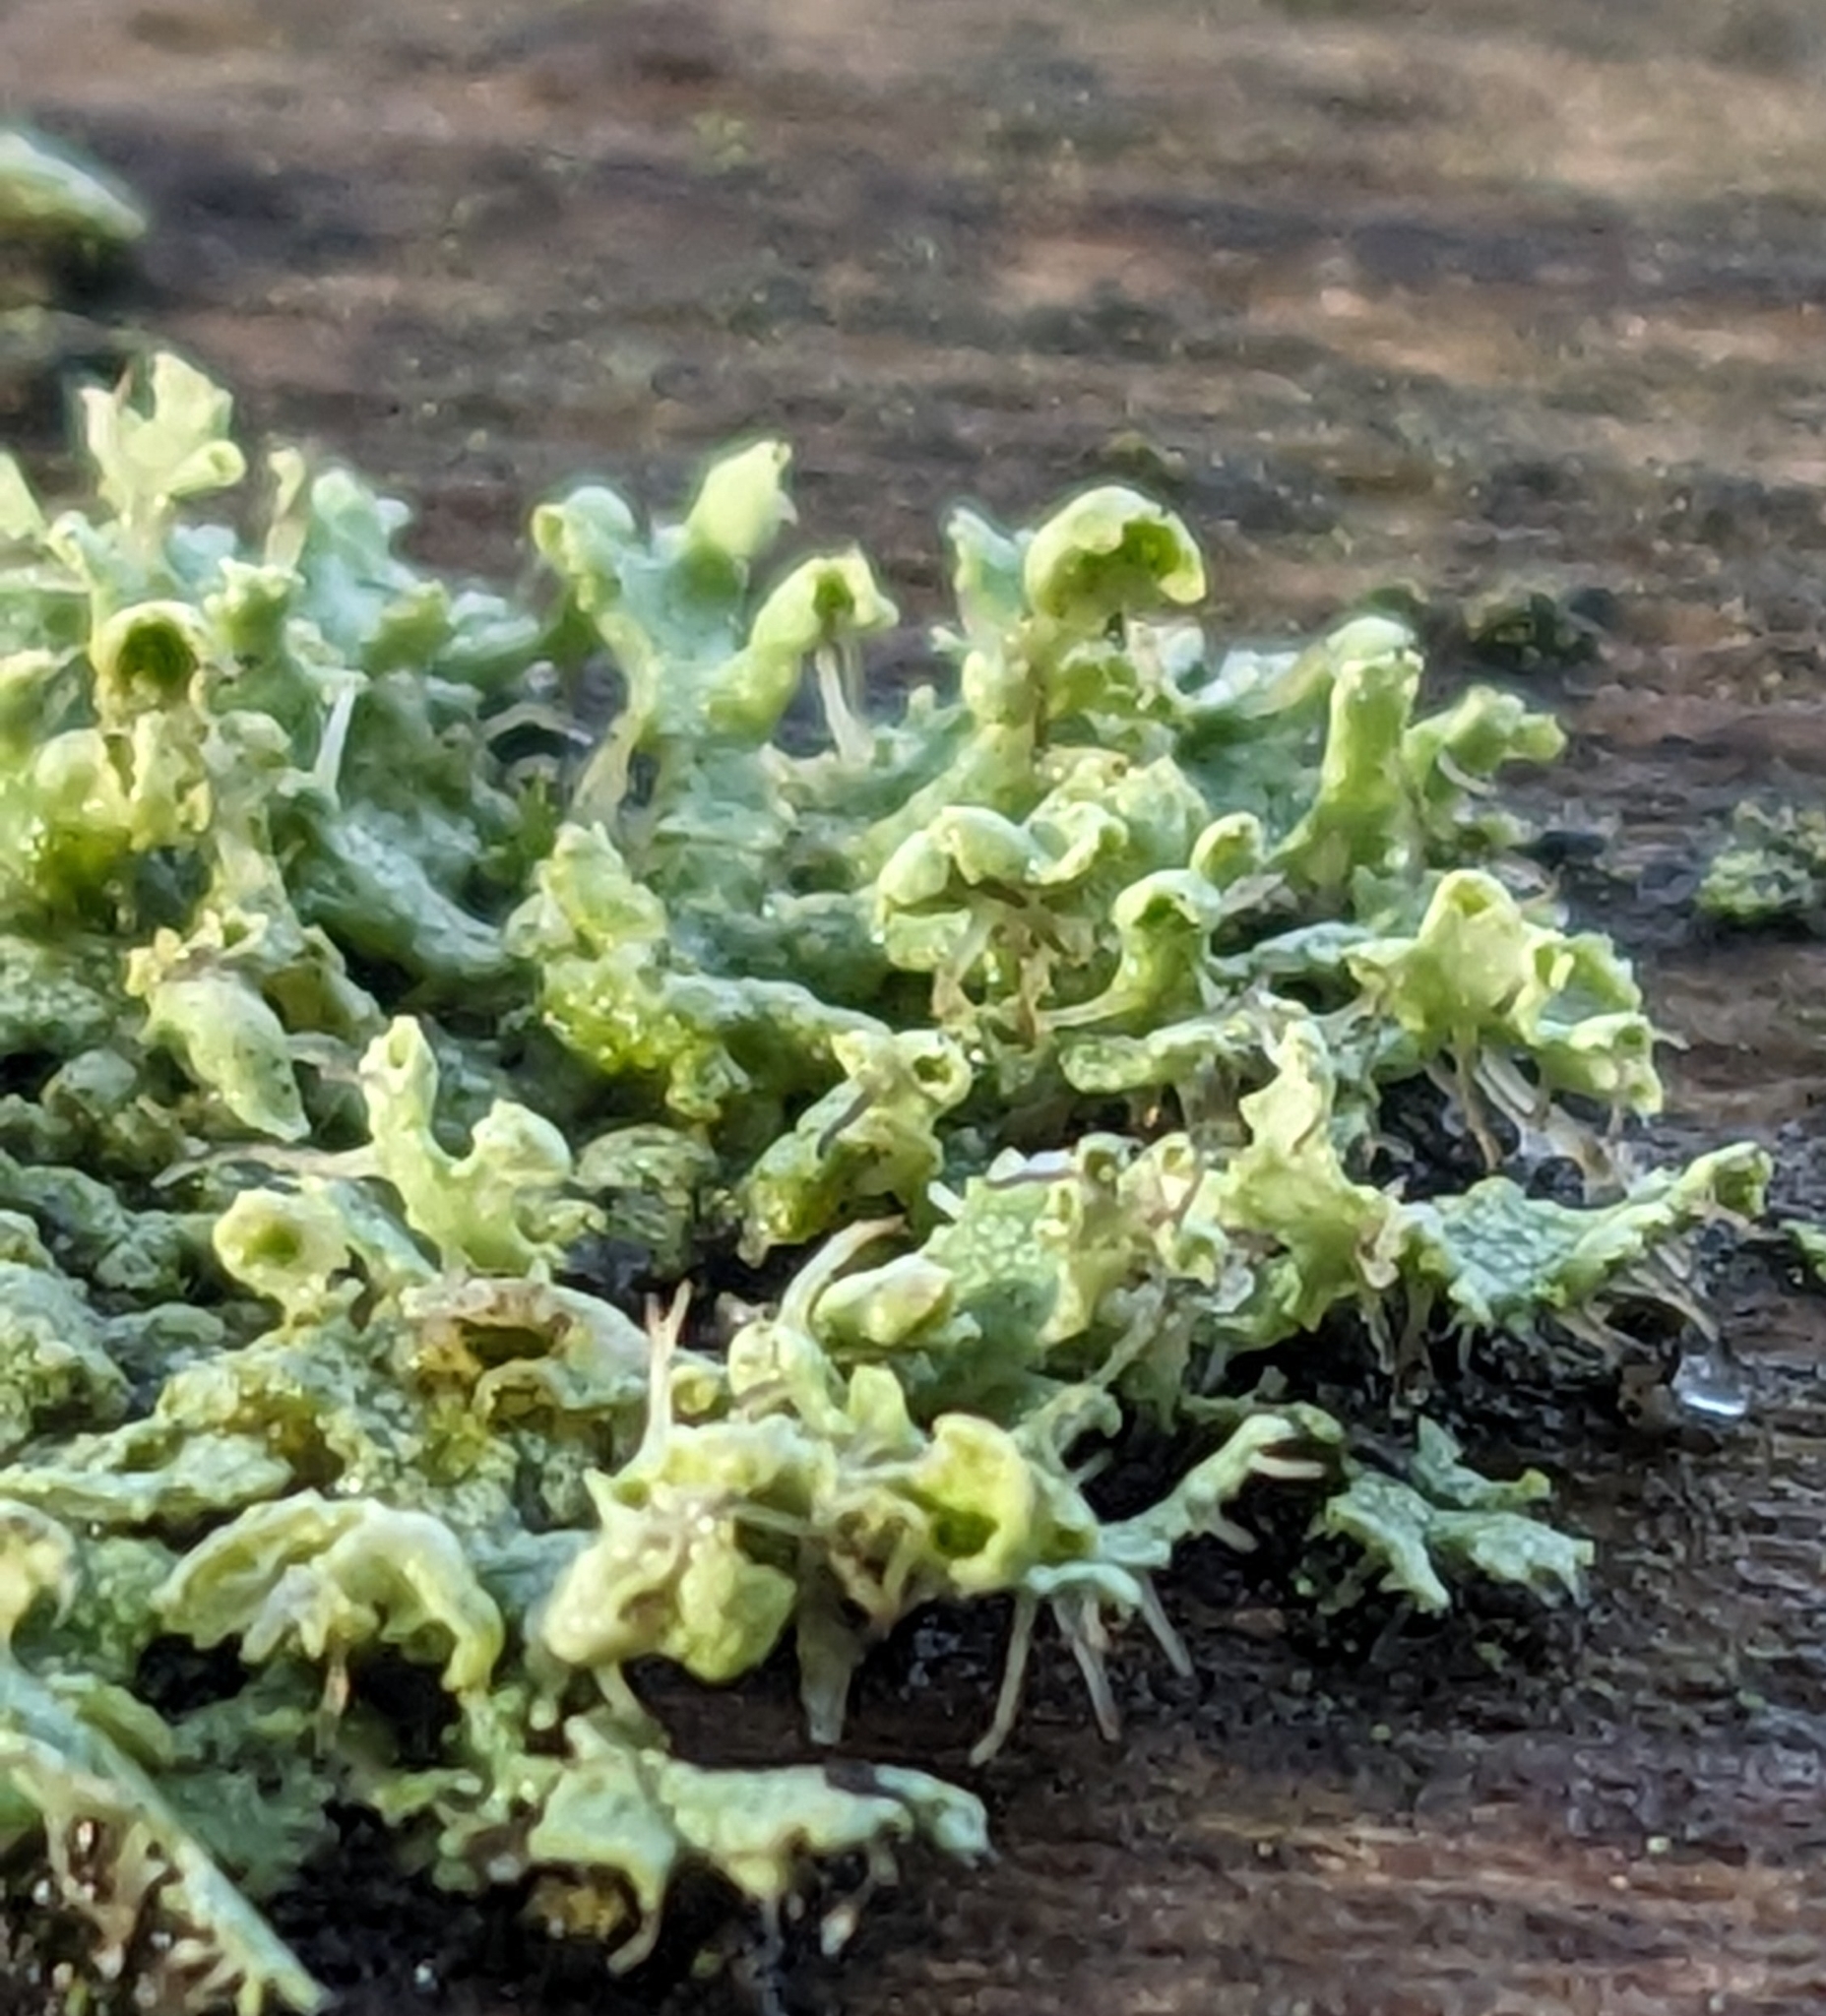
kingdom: Fungi
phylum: Ascomycota
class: Lecanoromycetes
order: Caliciales
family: Physciaceae
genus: Physcia
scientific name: Physcia adscendens
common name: Hooded rosette lichen
